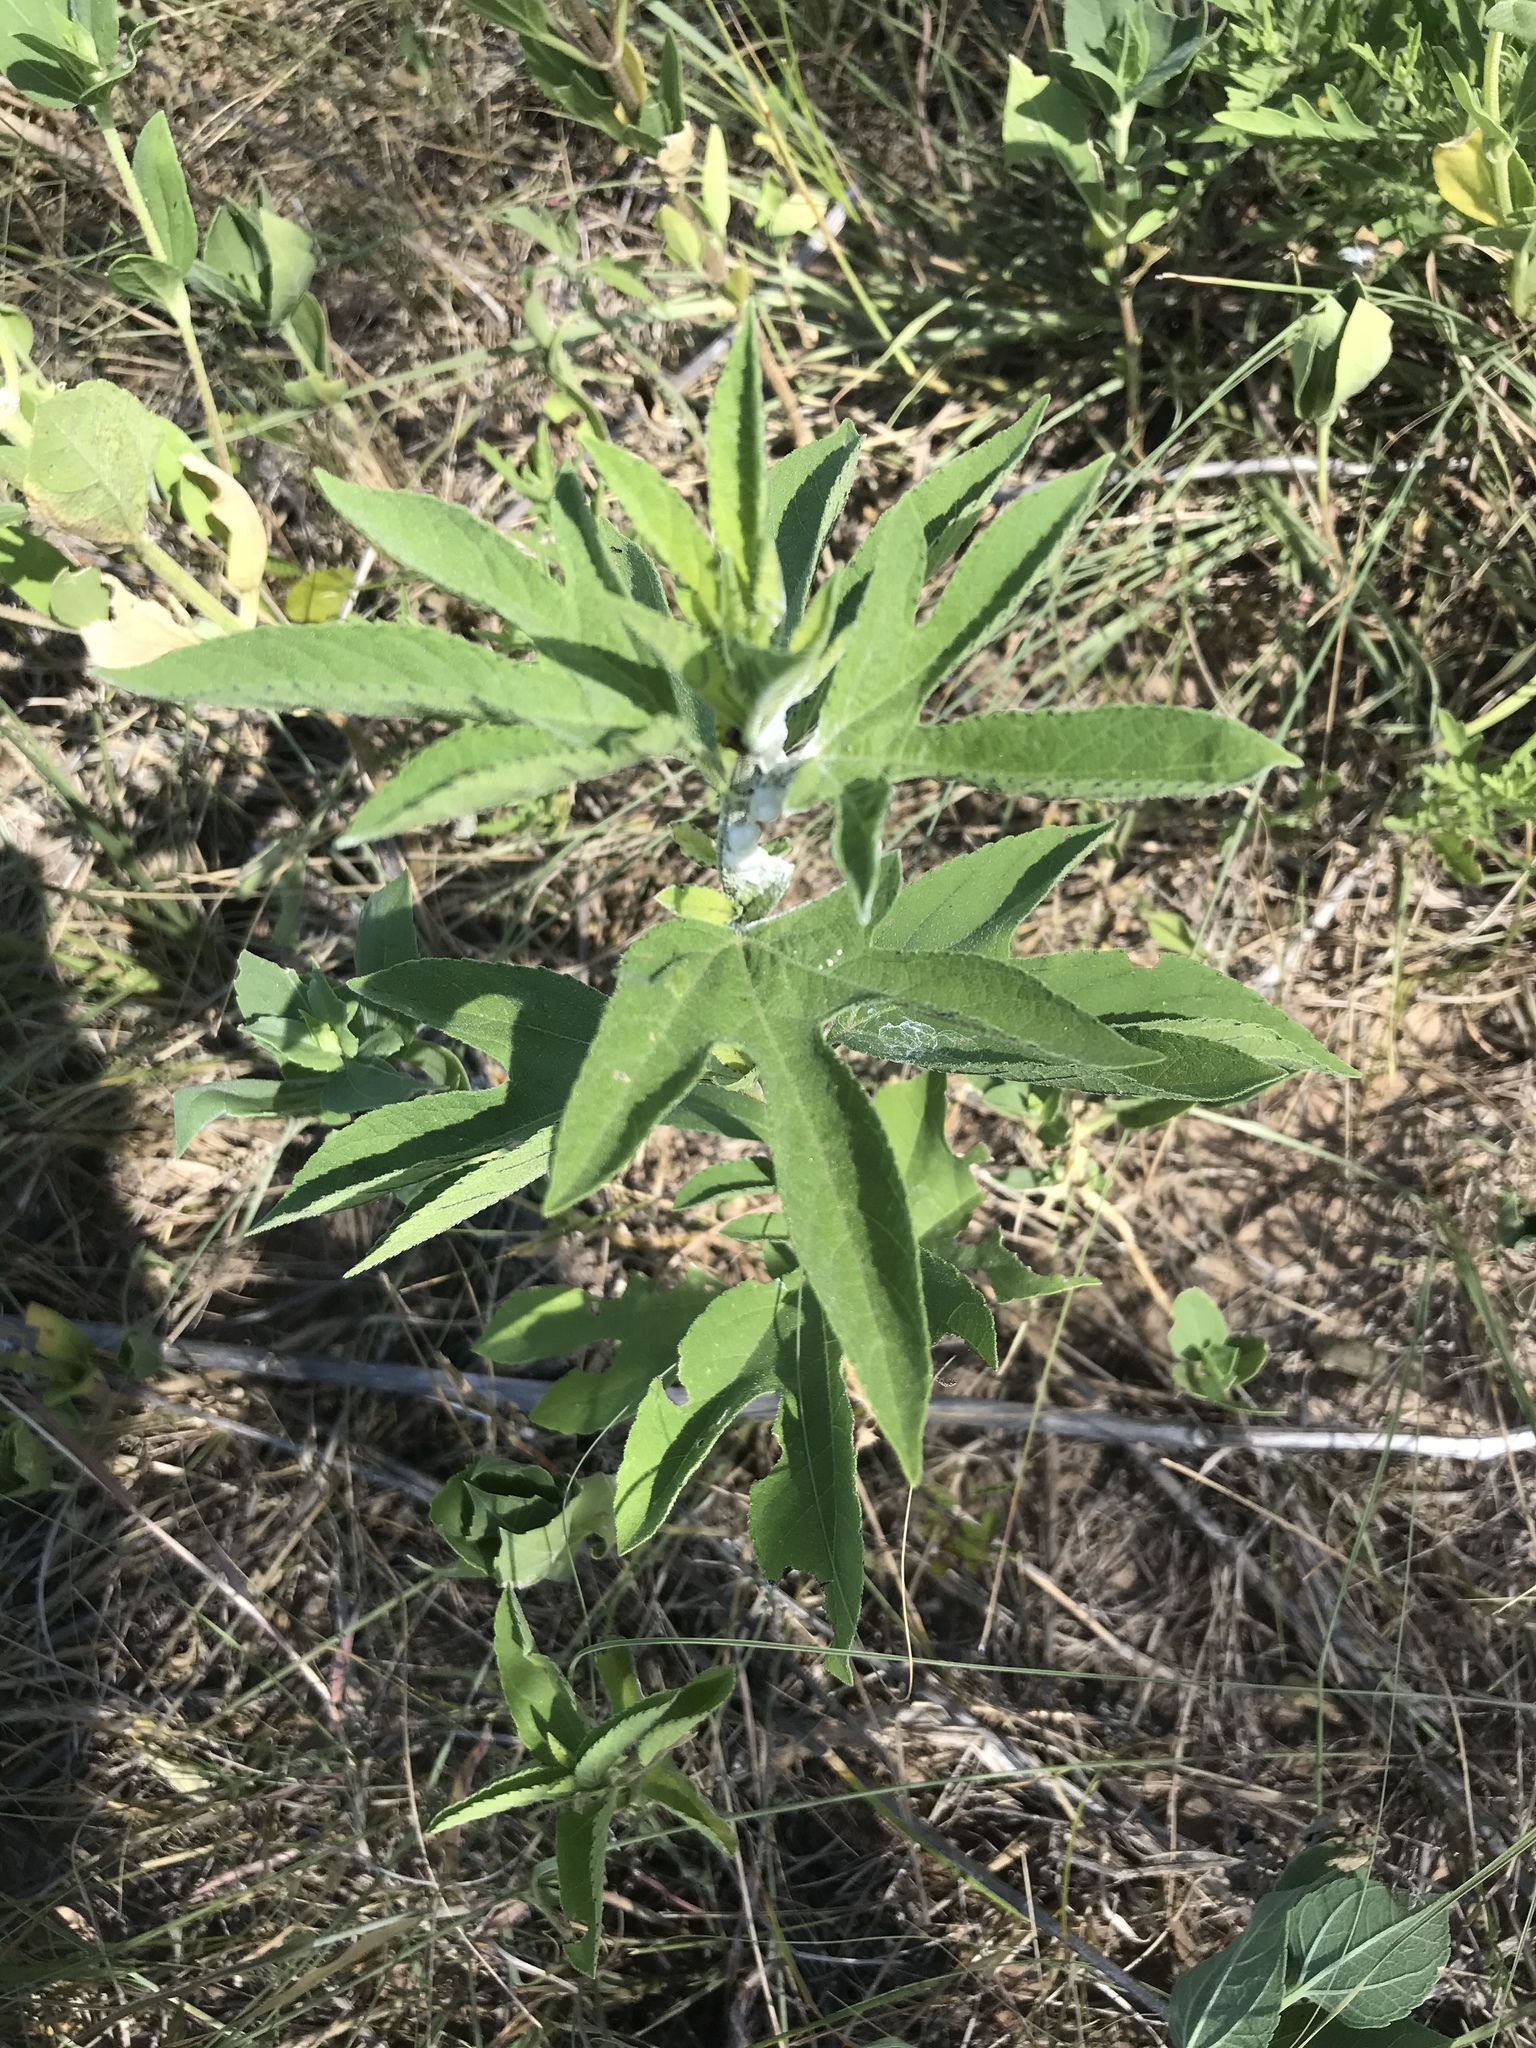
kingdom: Plantae
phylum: Tracheophyta
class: Magnoliopsida
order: Asterales
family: Asteraceae
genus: Ambrosia
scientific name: Ambrosia trifida
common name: Giant ragweed
